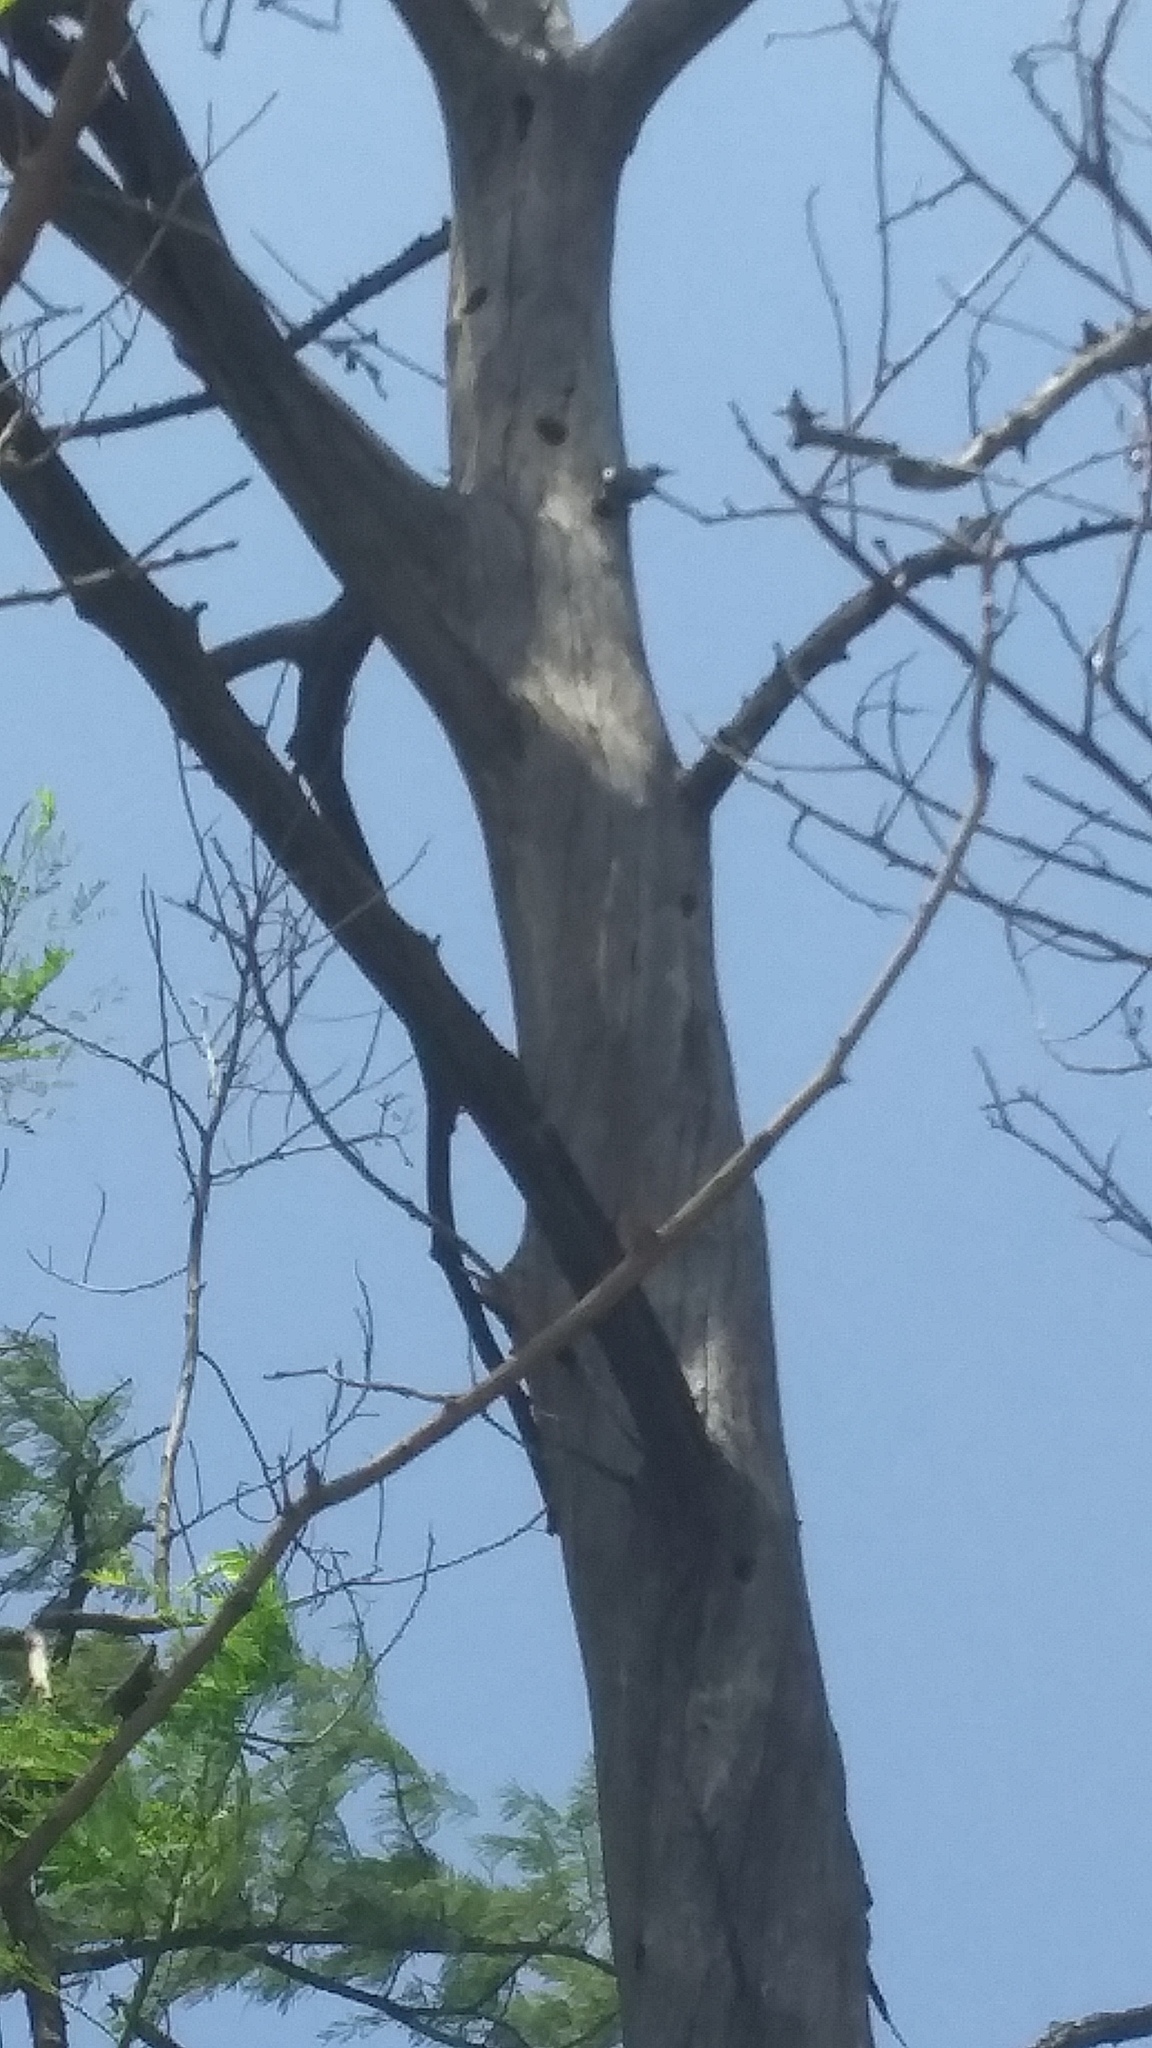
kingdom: Animalia
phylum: Chordata
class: Aves
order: Piciformes
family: Picidae
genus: Melanerpes
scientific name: Melanerpes aurifrons
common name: Golden-fronted woodpecker
